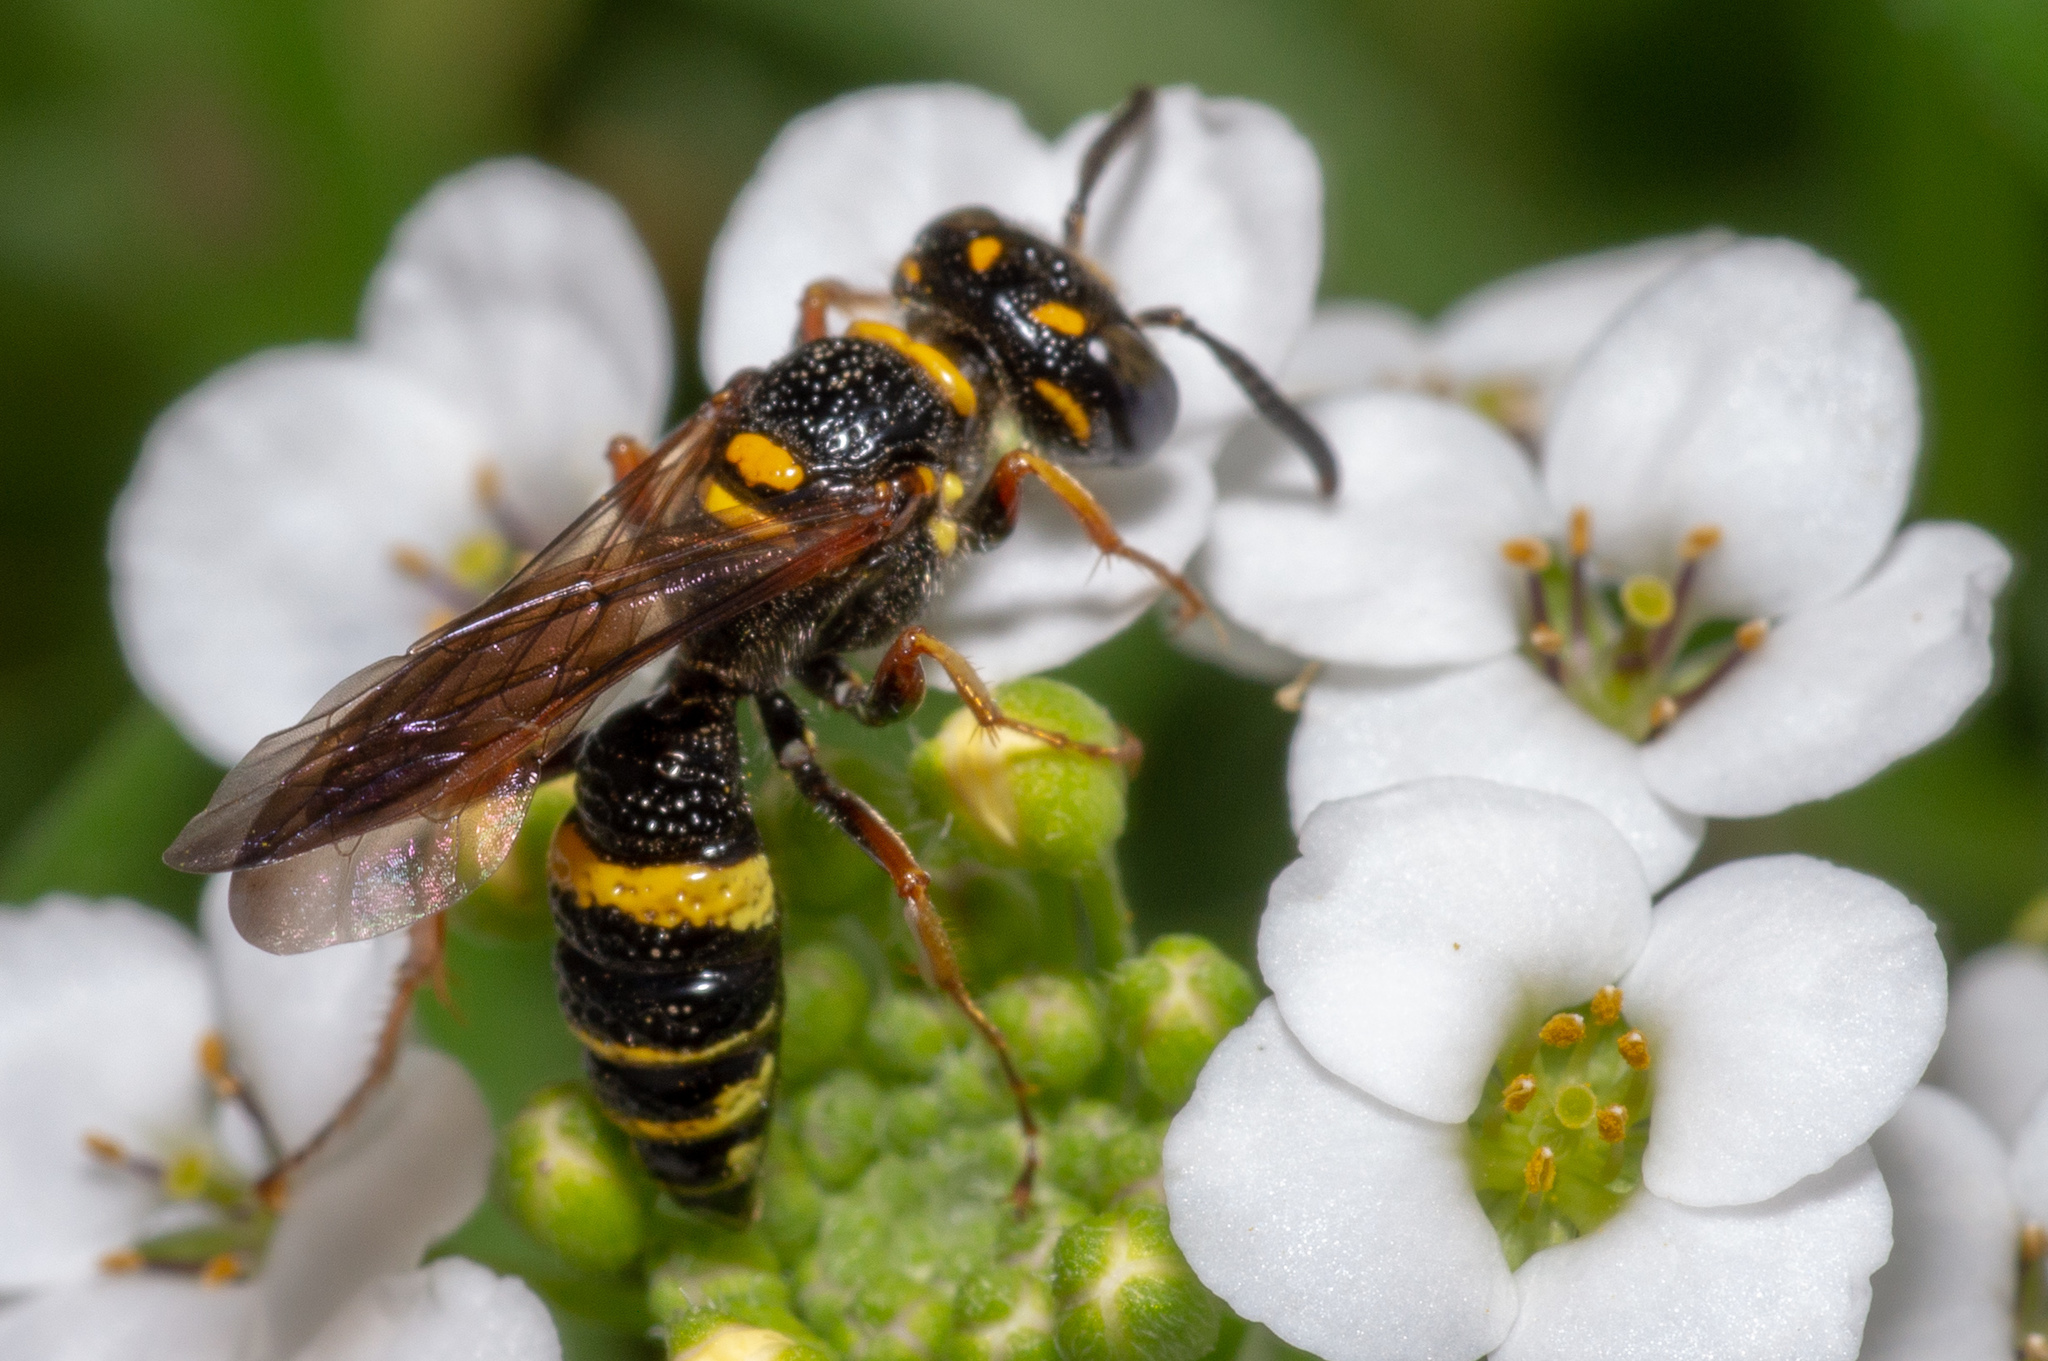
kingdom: Animalia
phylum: Arthropoda
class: Insecta
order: Hymenoptera
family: Crabronidae
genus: Philanthus
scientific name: Philanthus gibbosus
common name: Humped beewolf
